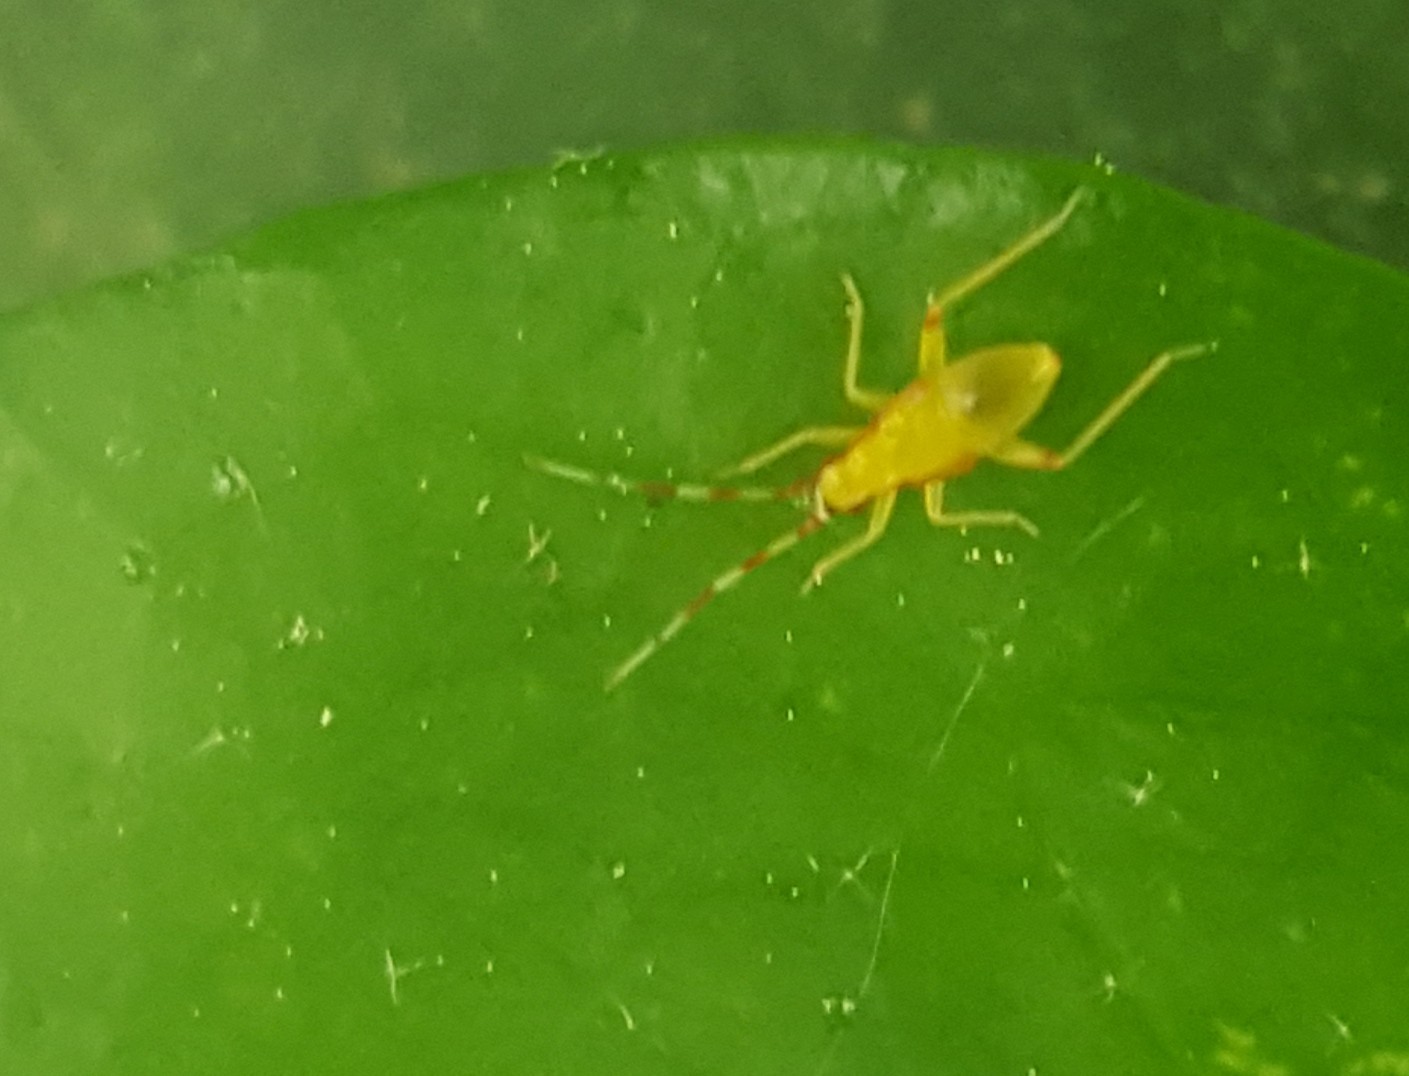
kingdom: Animalia
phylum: Arthropoda
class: Insecta
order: Hemiptera
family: Miridae
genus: Campyloneura
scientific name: Campyloneura virgula
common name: Predatory bug
